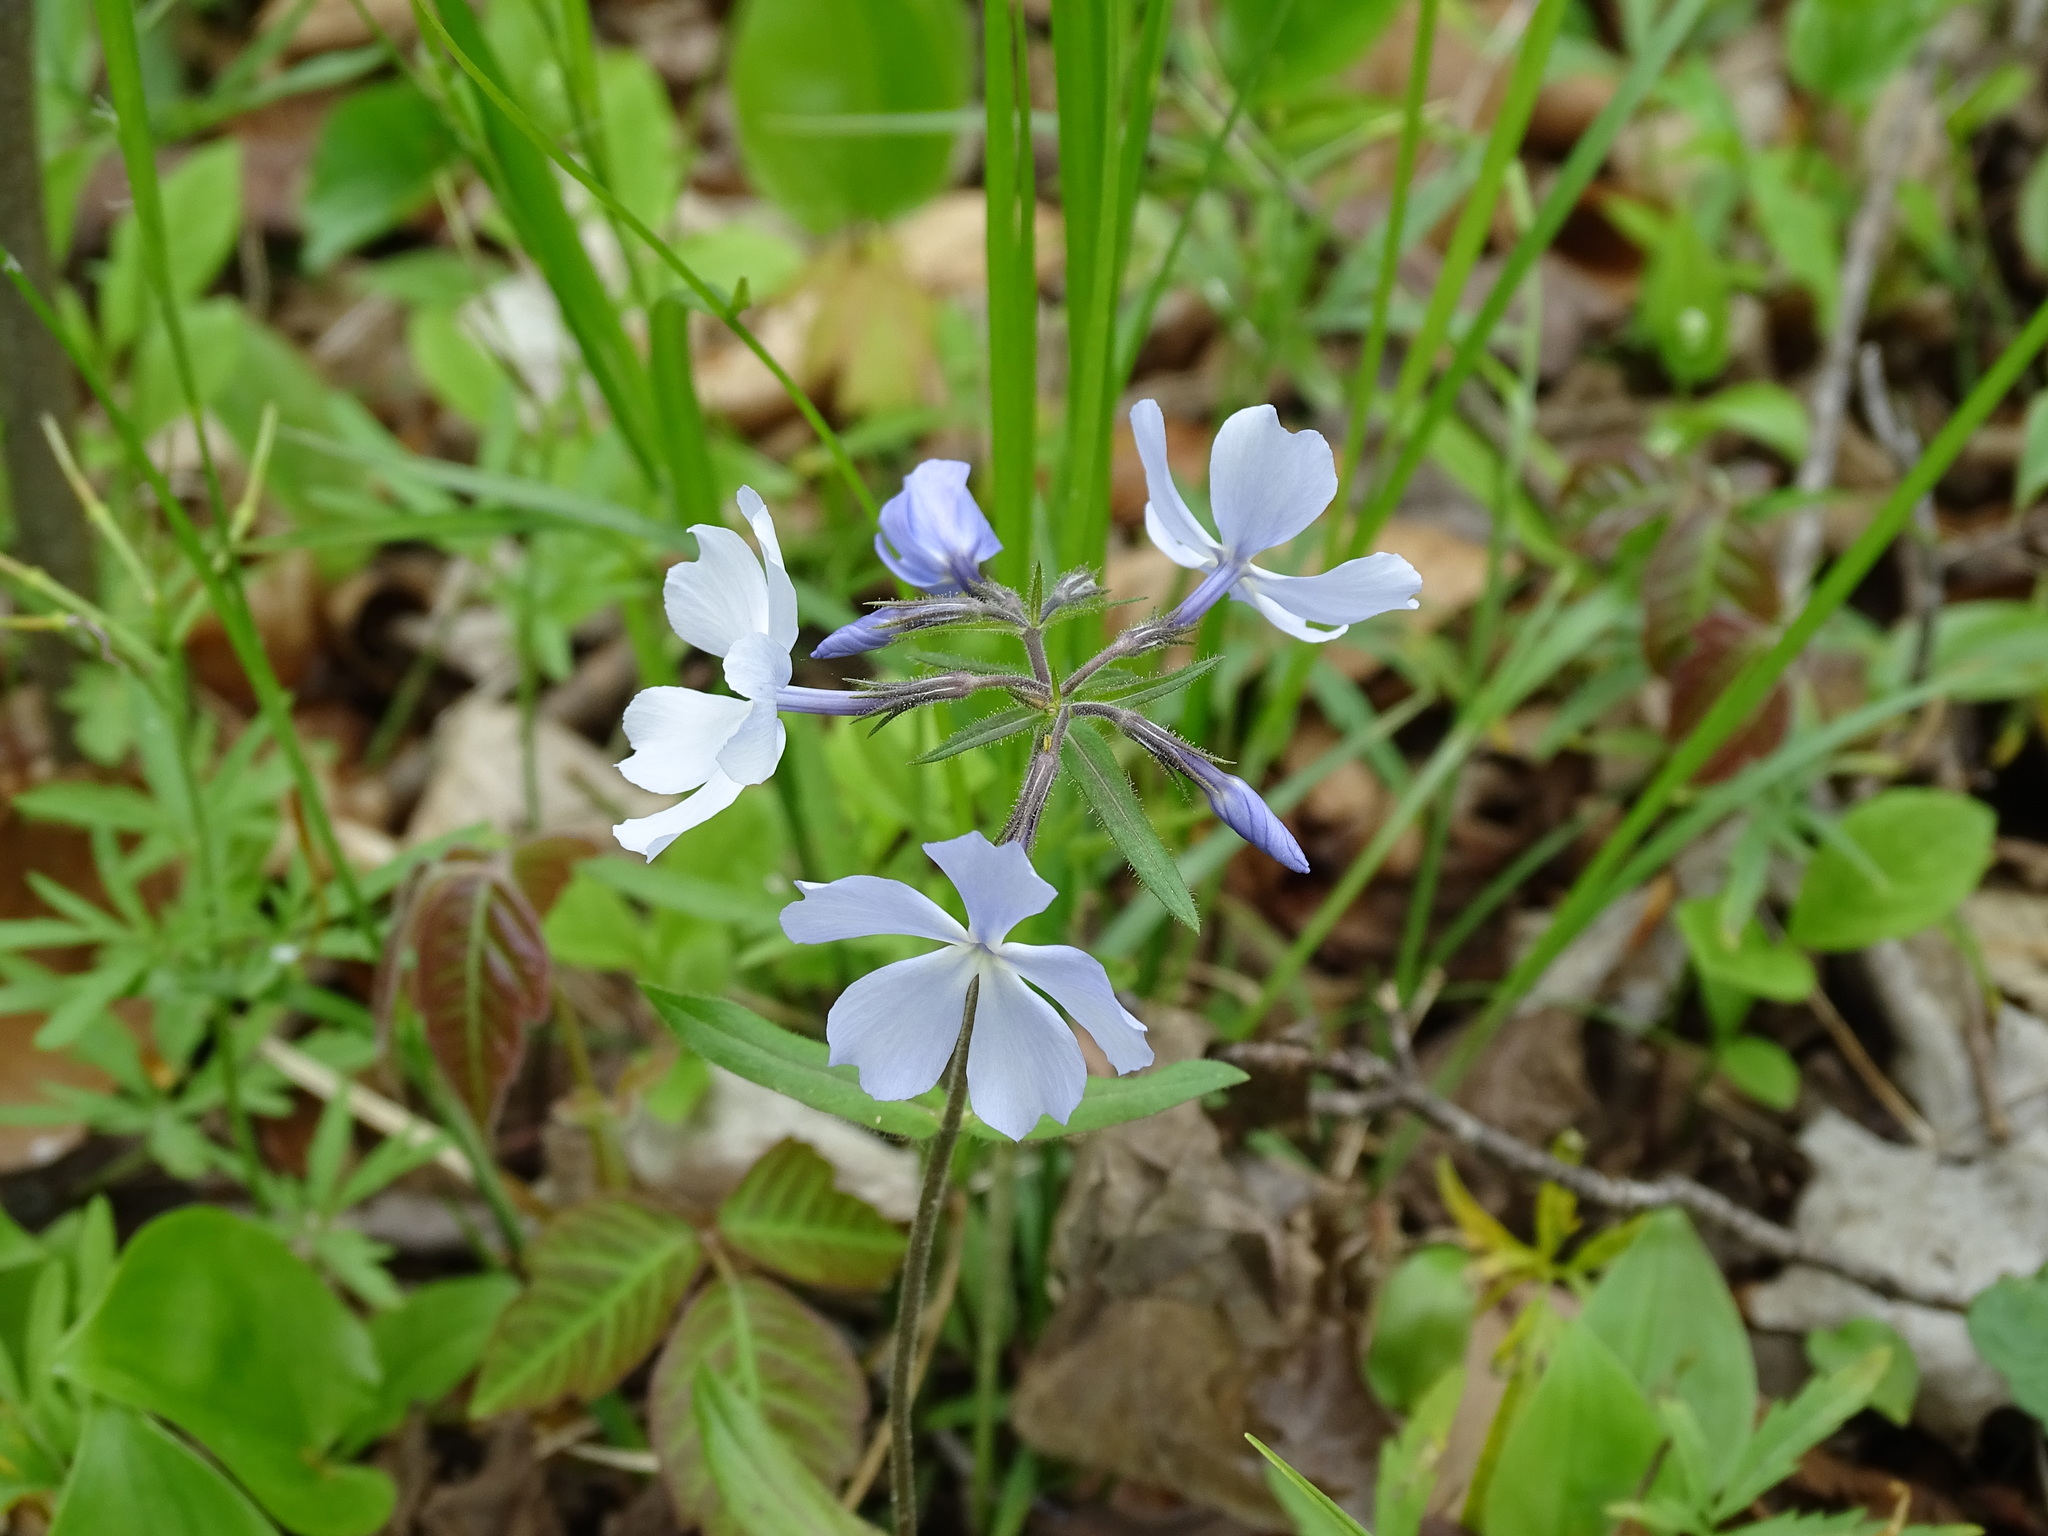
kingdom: Plantae
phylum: Tracheophyta
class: Magnoliopsida
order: Ericales
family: Polemoniaceae
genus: Phlox
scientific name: Phlox divaricata
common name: Blue phlox
